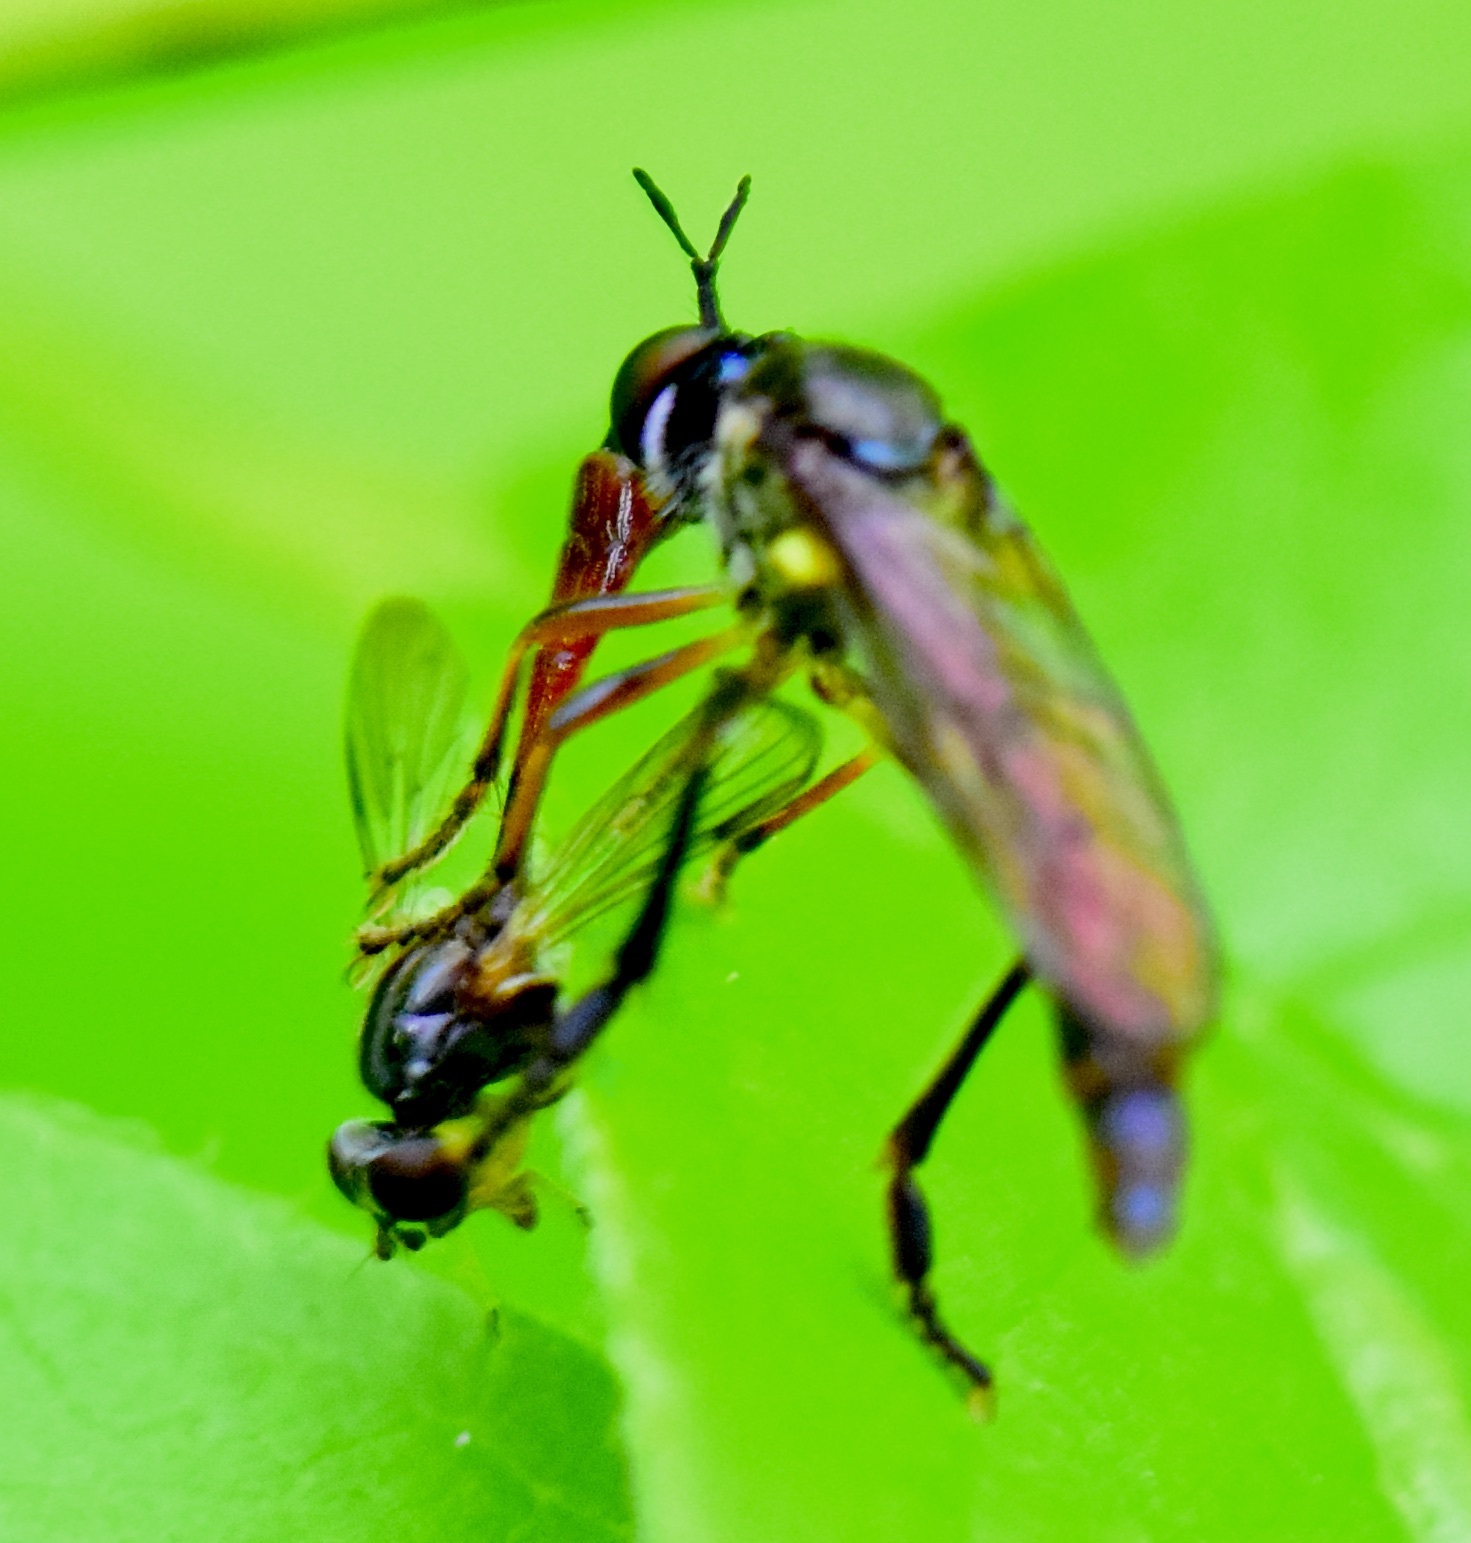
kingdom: Animalia
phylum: Arthropoda
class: Insecta
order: Diptera
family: Asilidae
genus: Dioctria
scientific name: Dioctria hyalipennis
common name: Stripe-legged robberfly
